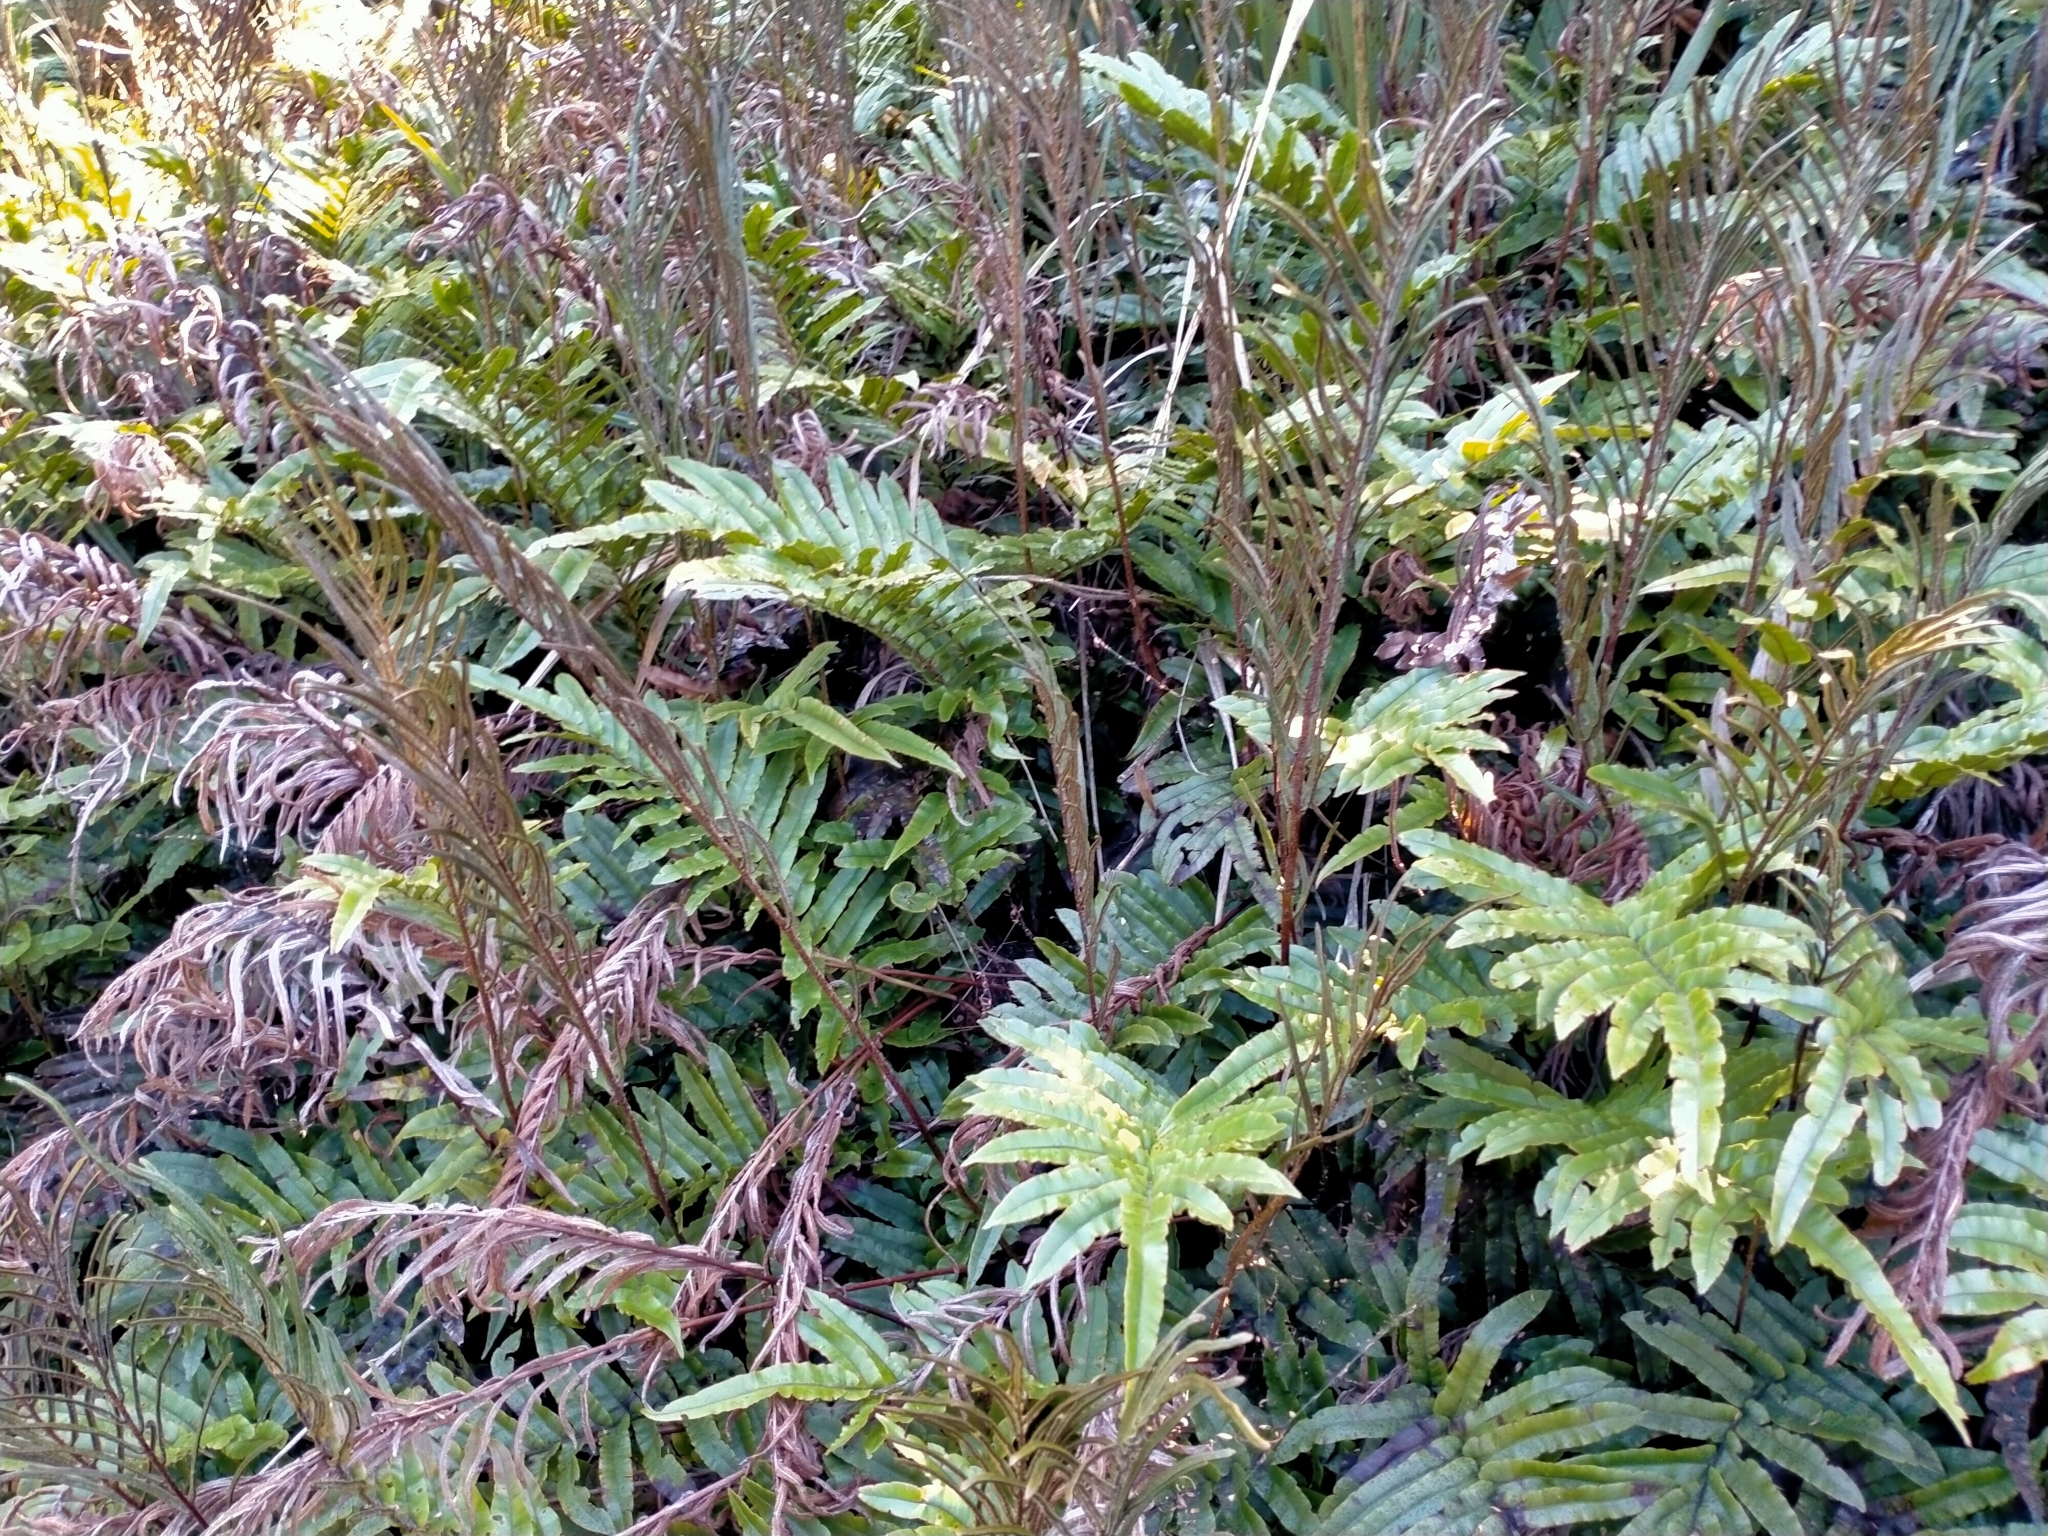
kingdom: Plantae
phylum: Tracheophyta
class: Polypodiopsida
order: Polypodiales
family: Blechnaceae
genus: Parablechnum
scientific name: Parablechnum montanum
